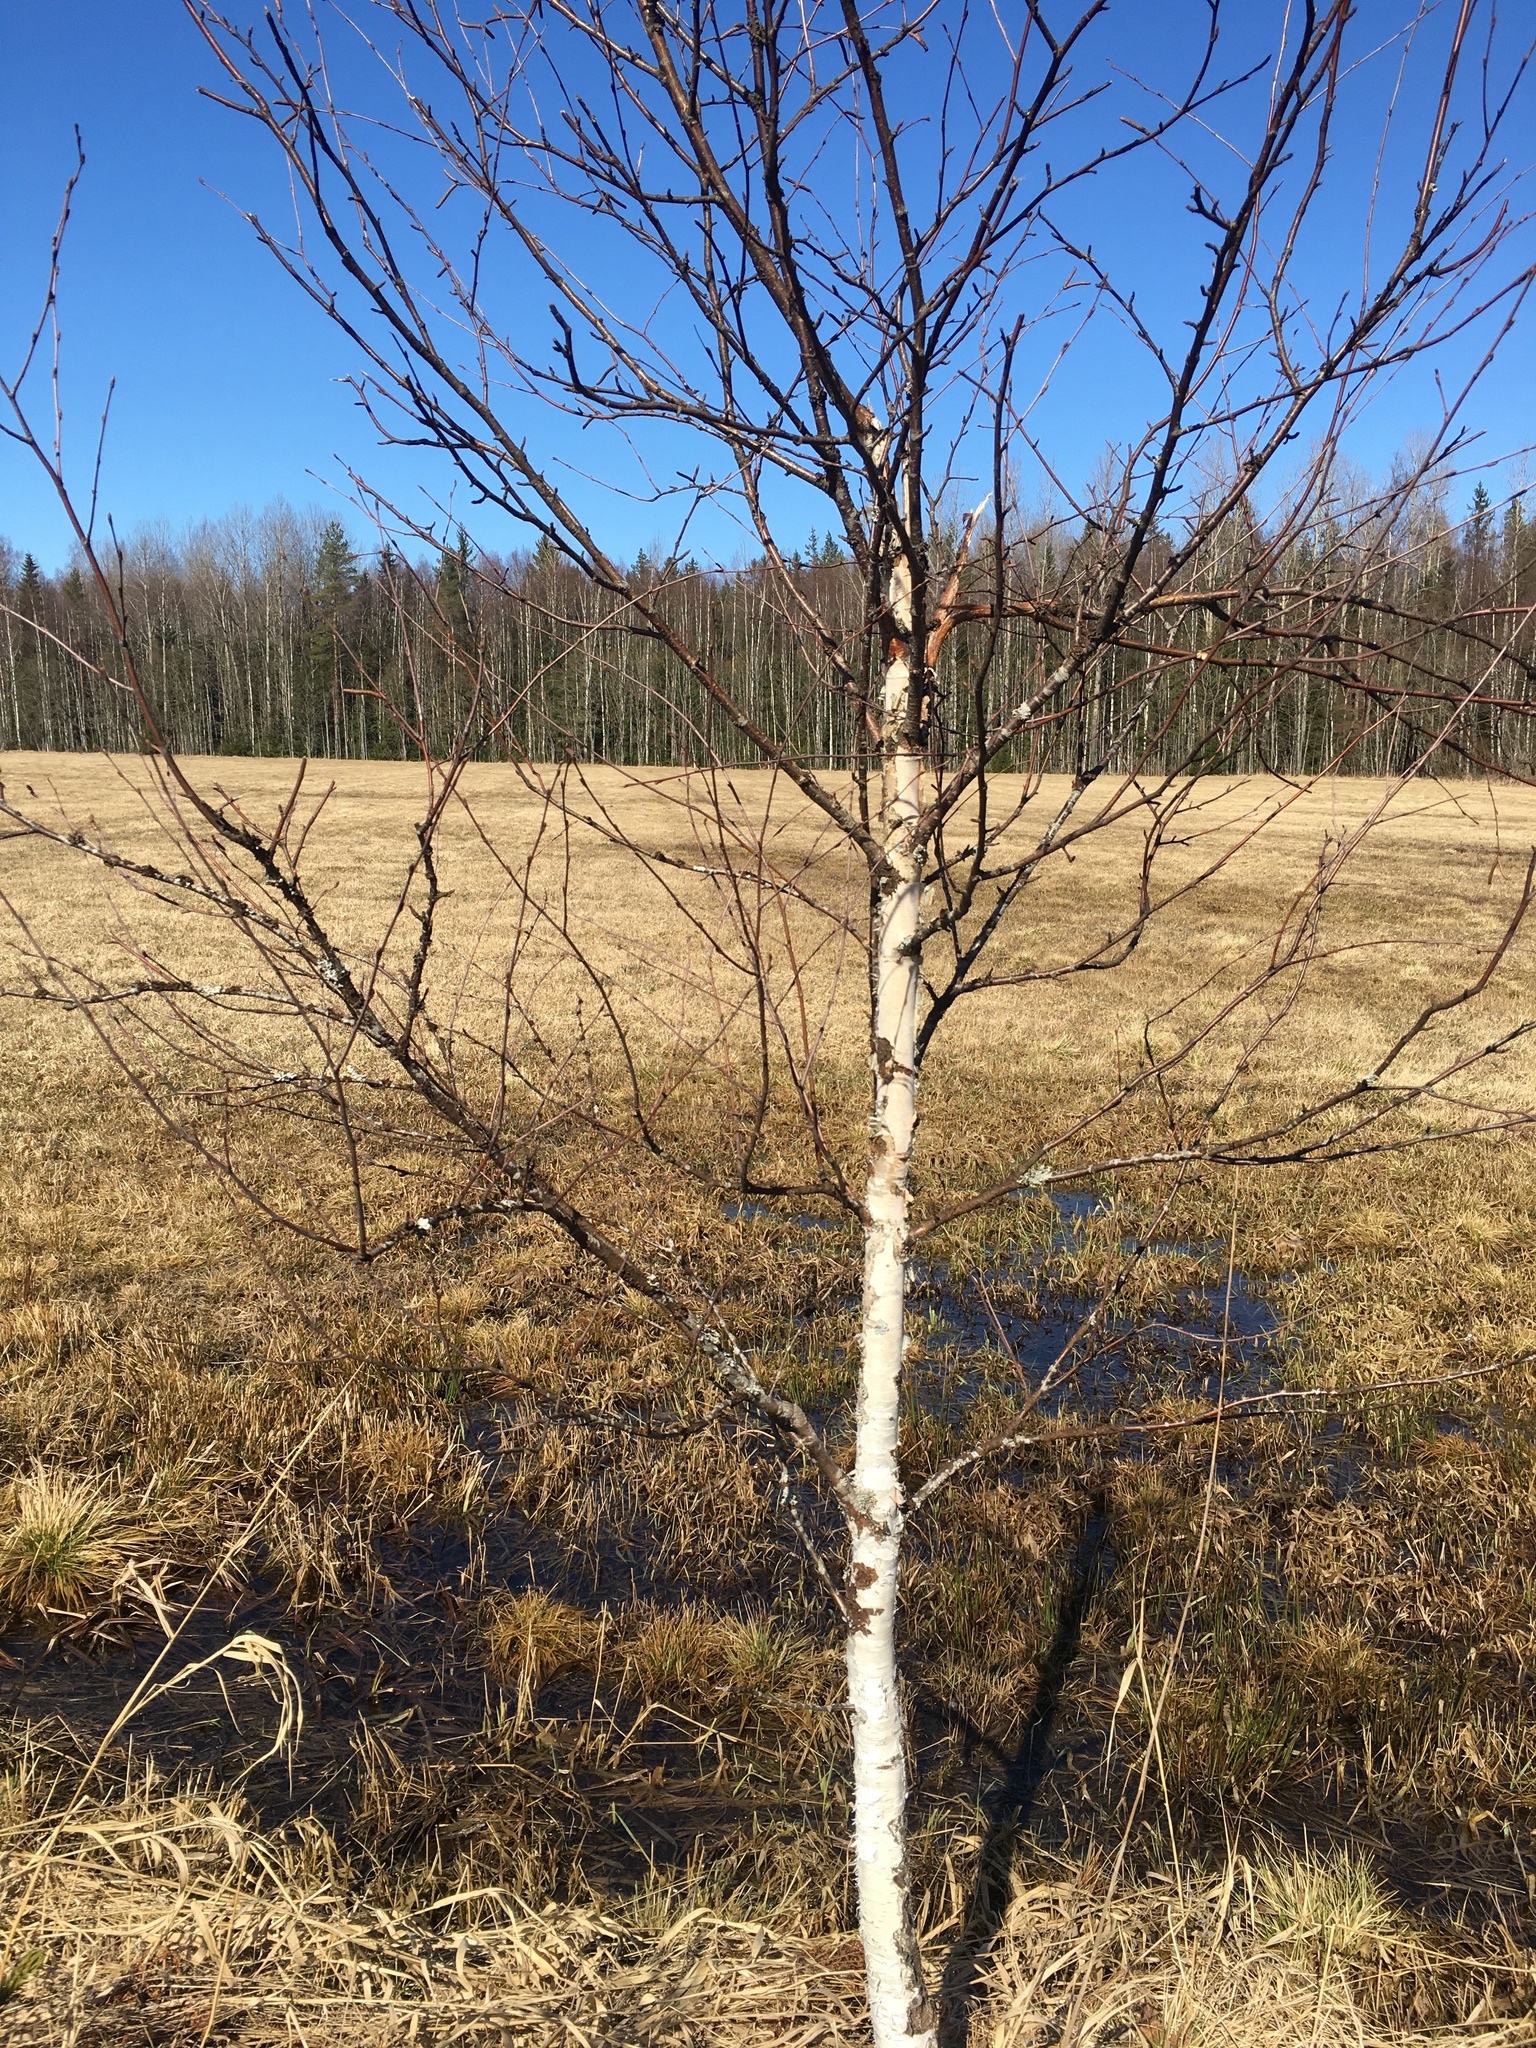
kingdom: Plantae
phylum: Tracheophyta
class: Magnoliopsida
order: Fagales
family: Betulaceae
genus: Betula
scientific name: Betula pendula
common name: Silver birch
